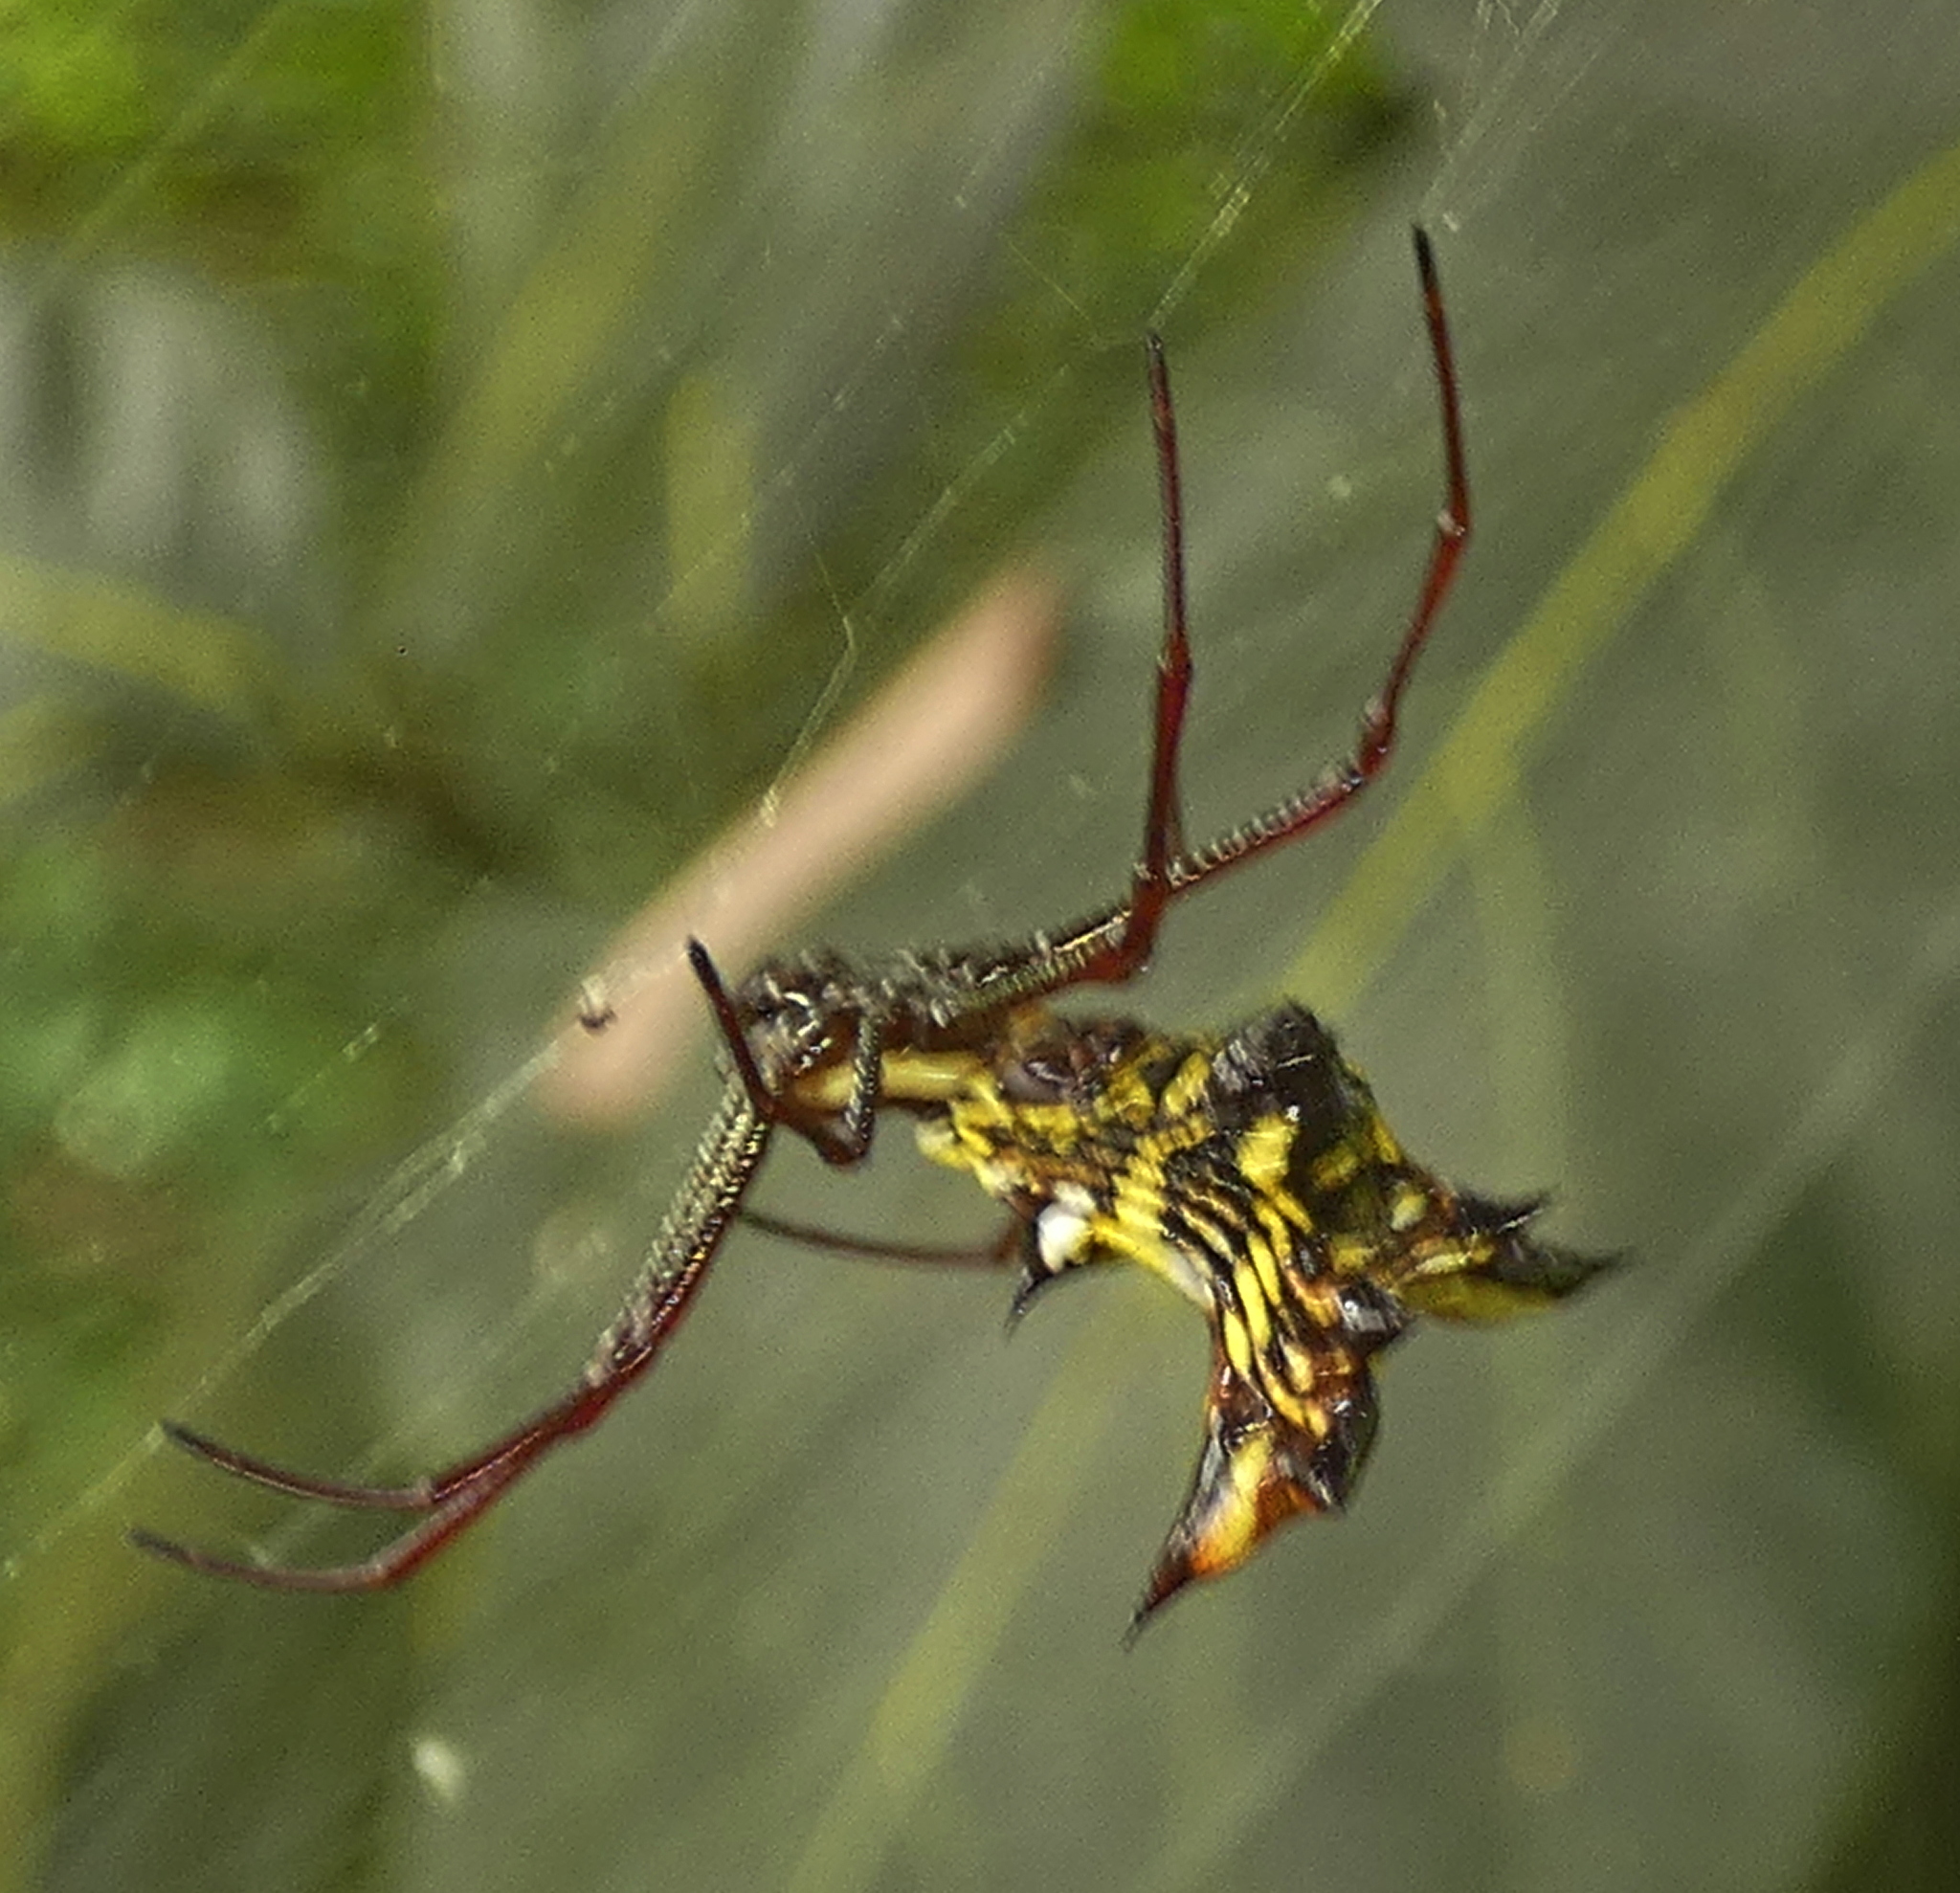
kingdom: Animalia
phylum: Arthropoda
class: Arachnida
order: Araneae
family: Araneidae
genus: Micrathena
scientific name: Micrathena fissispina
